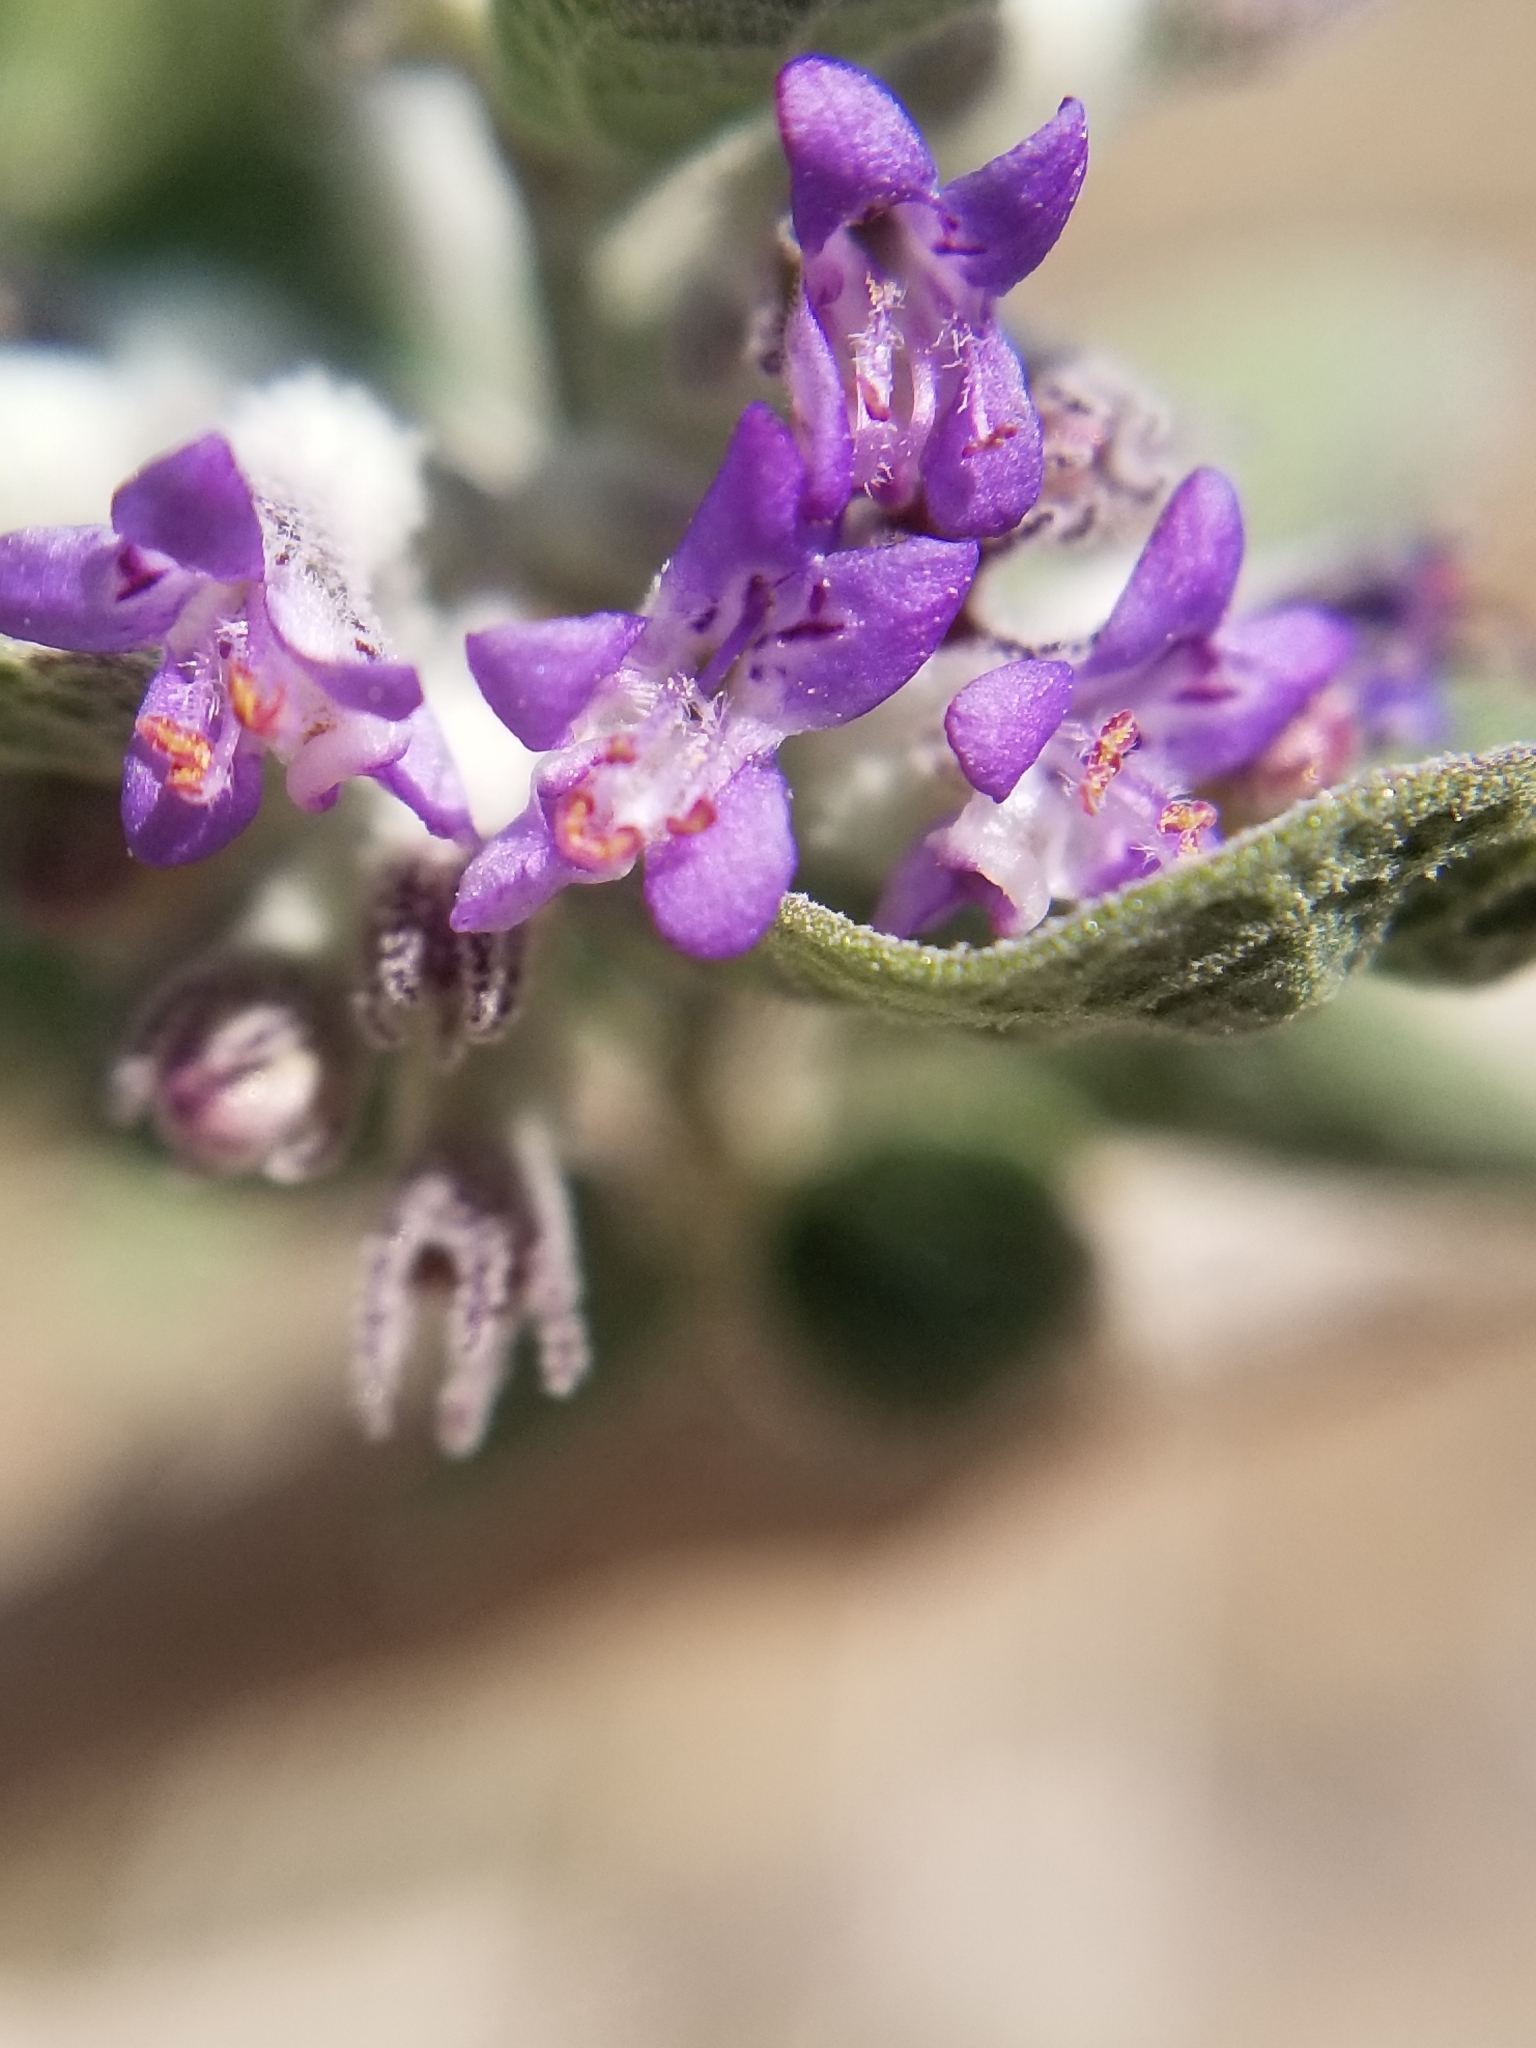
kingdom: Plantae
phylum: Tracheophyta
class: Magnoliopsida
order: Lamiales
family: Lamiaceae
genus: Condea
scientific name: Condea emoryi
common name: Chia
